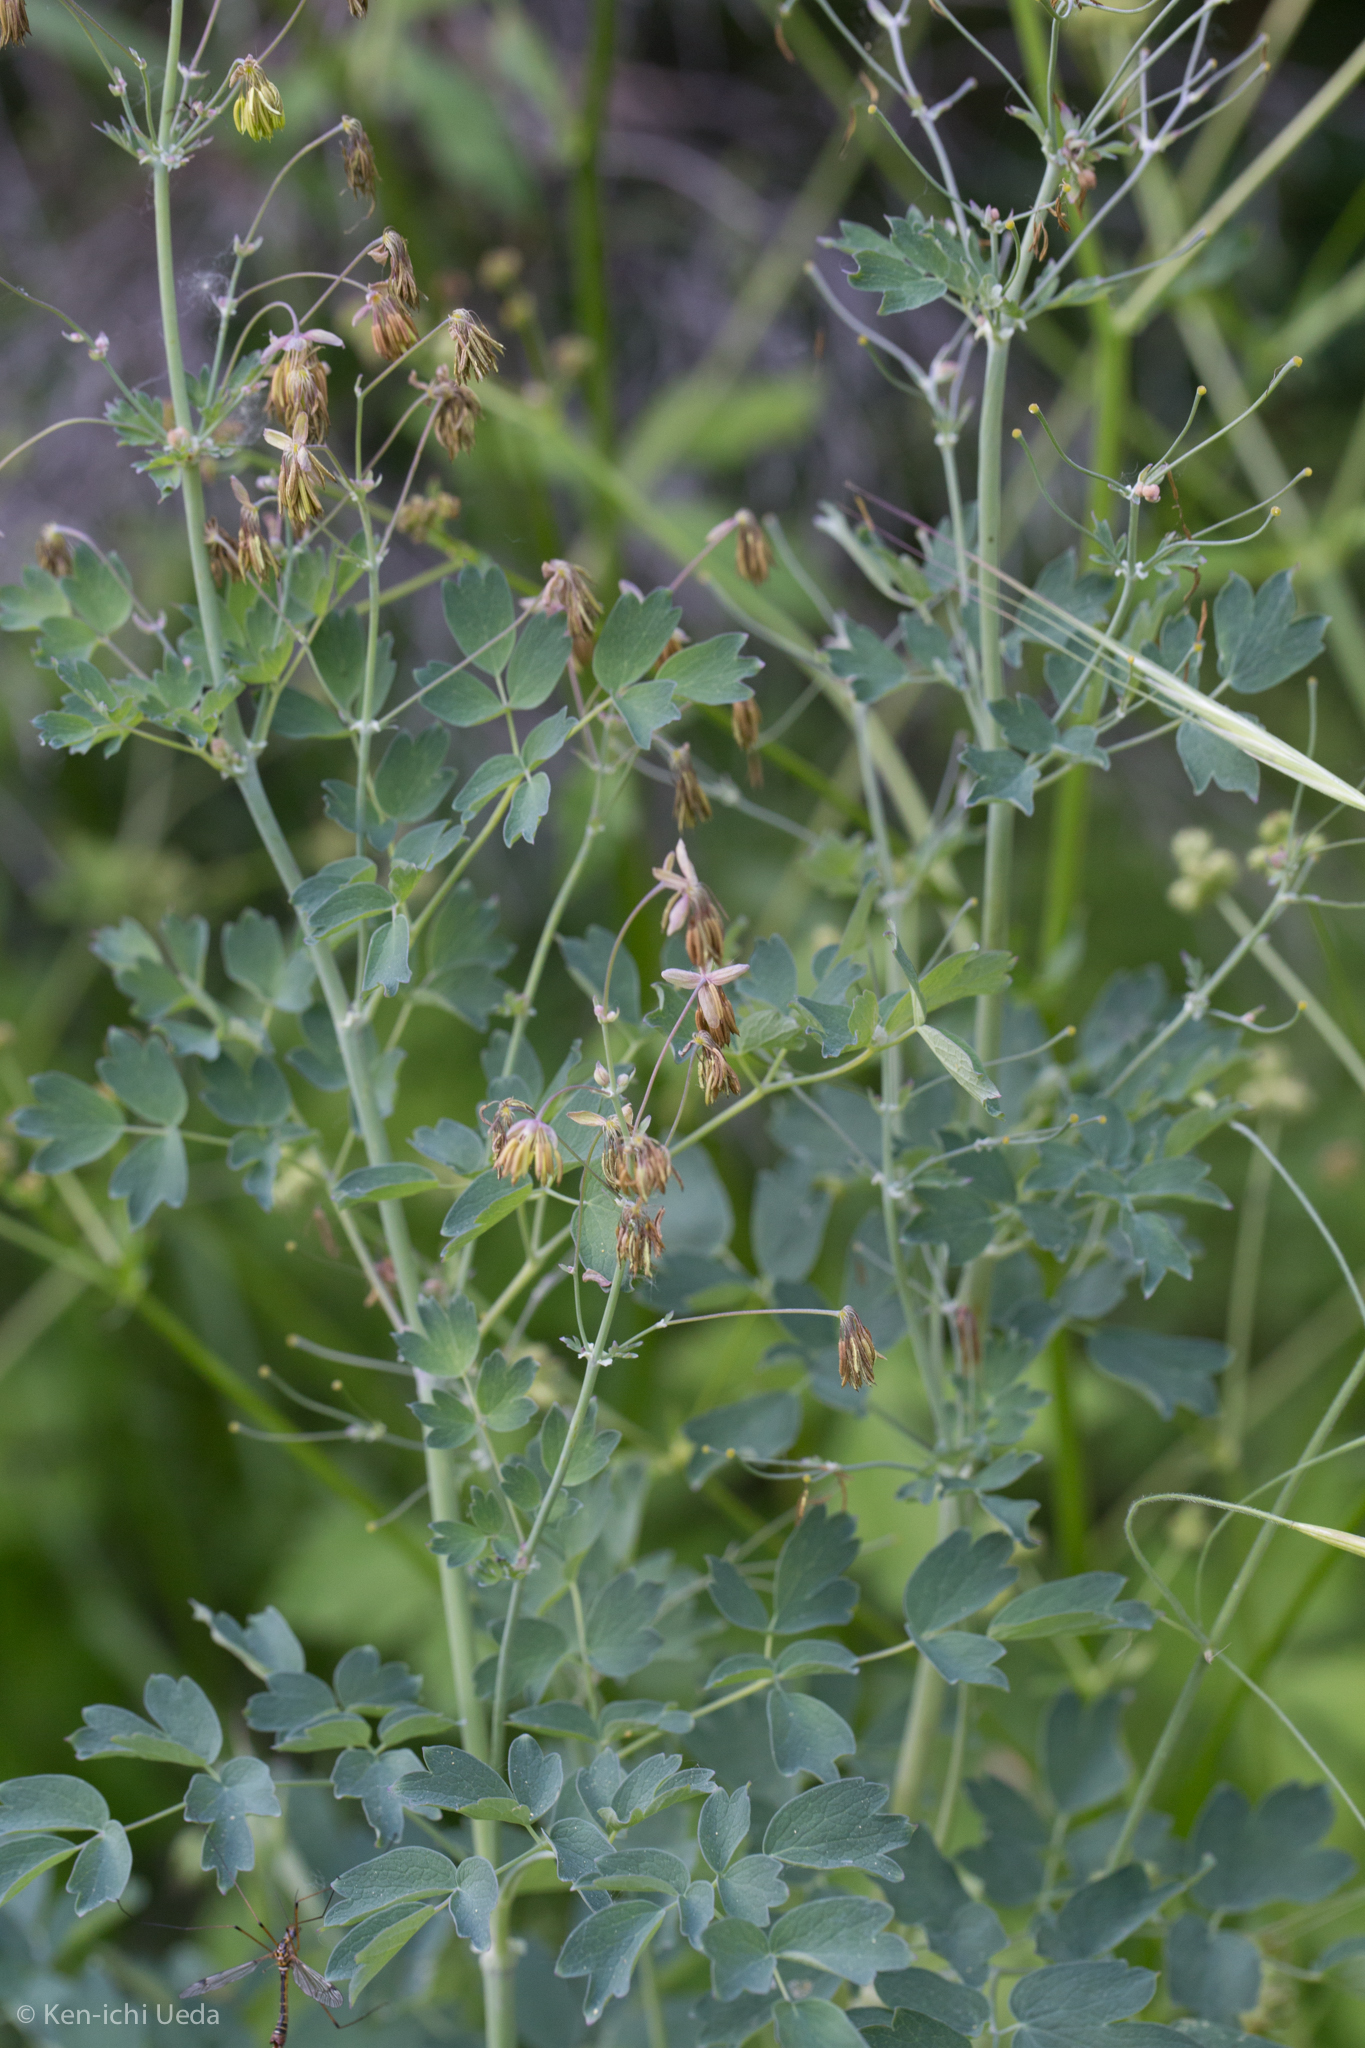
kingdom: Plantae
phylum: Tracheophyta
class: Magnoliopsida
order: Ranunculales
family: Ranunculaceae
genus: Thalictrum
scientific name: Thalictrum fendleri
